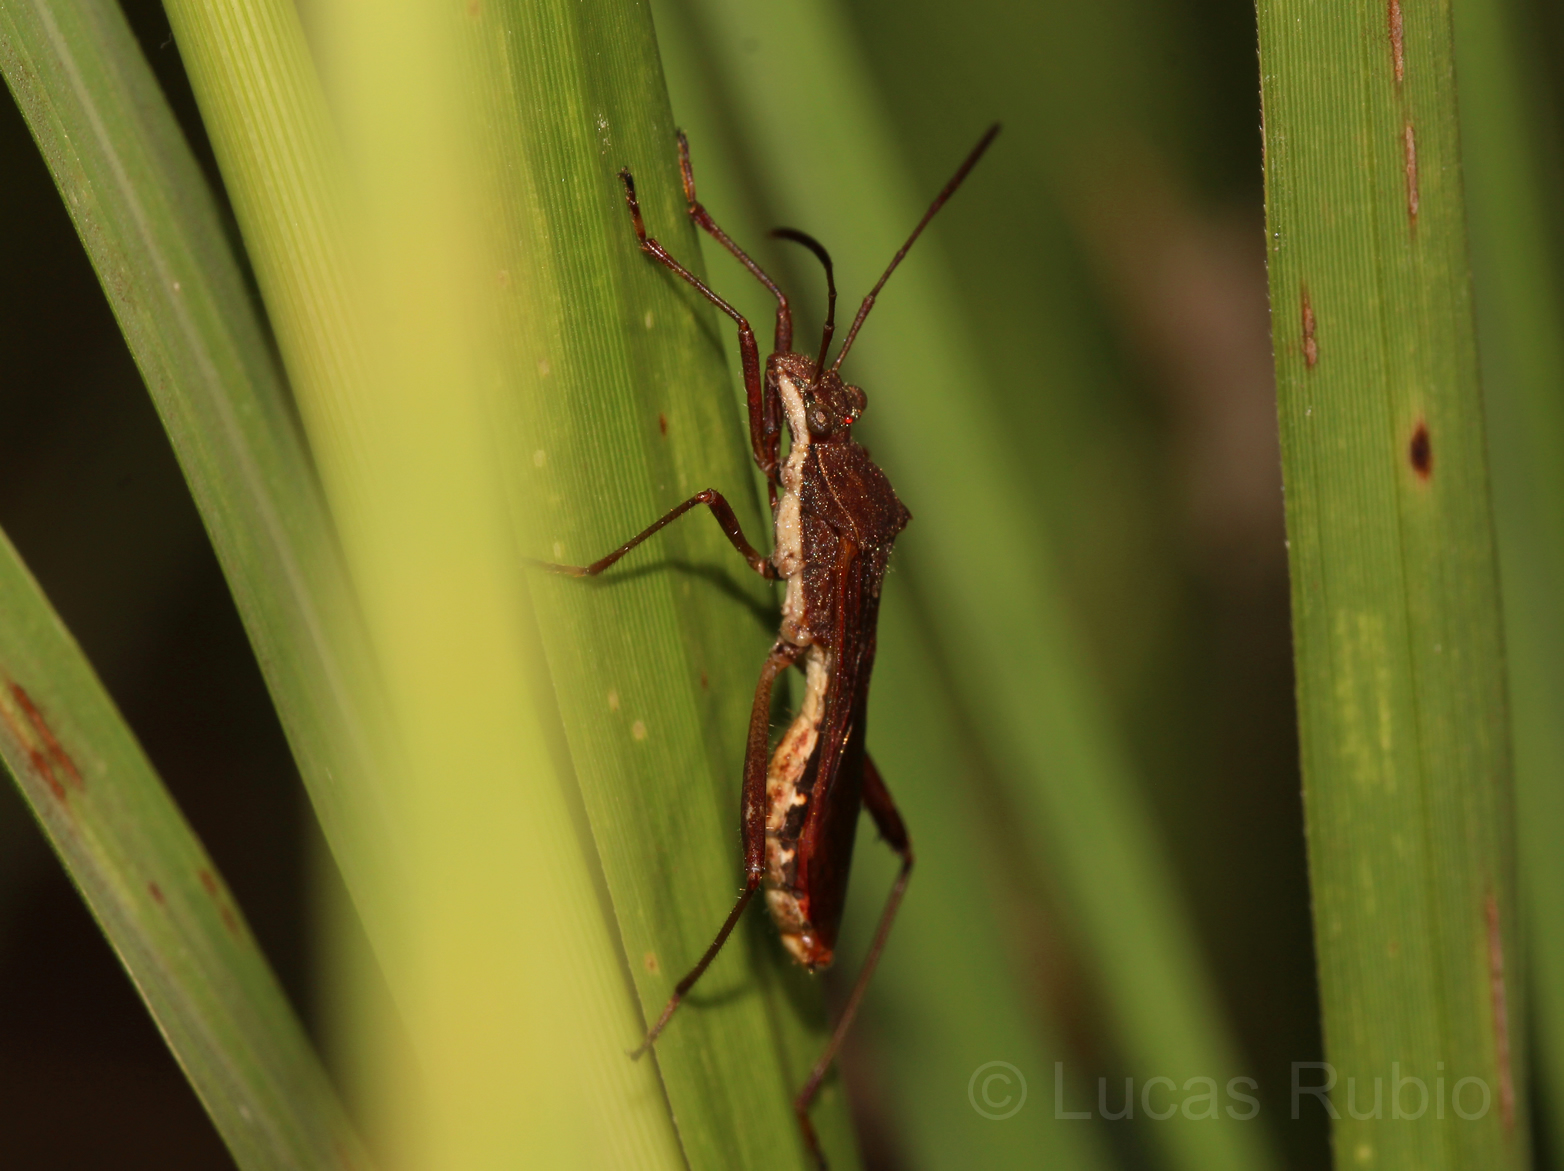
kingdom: Animalia
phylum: Arthropoda
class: Insecta
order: Hemiptera
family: Alydidae
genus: Neomegalotomus
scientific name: Neomegalotomus parvus
